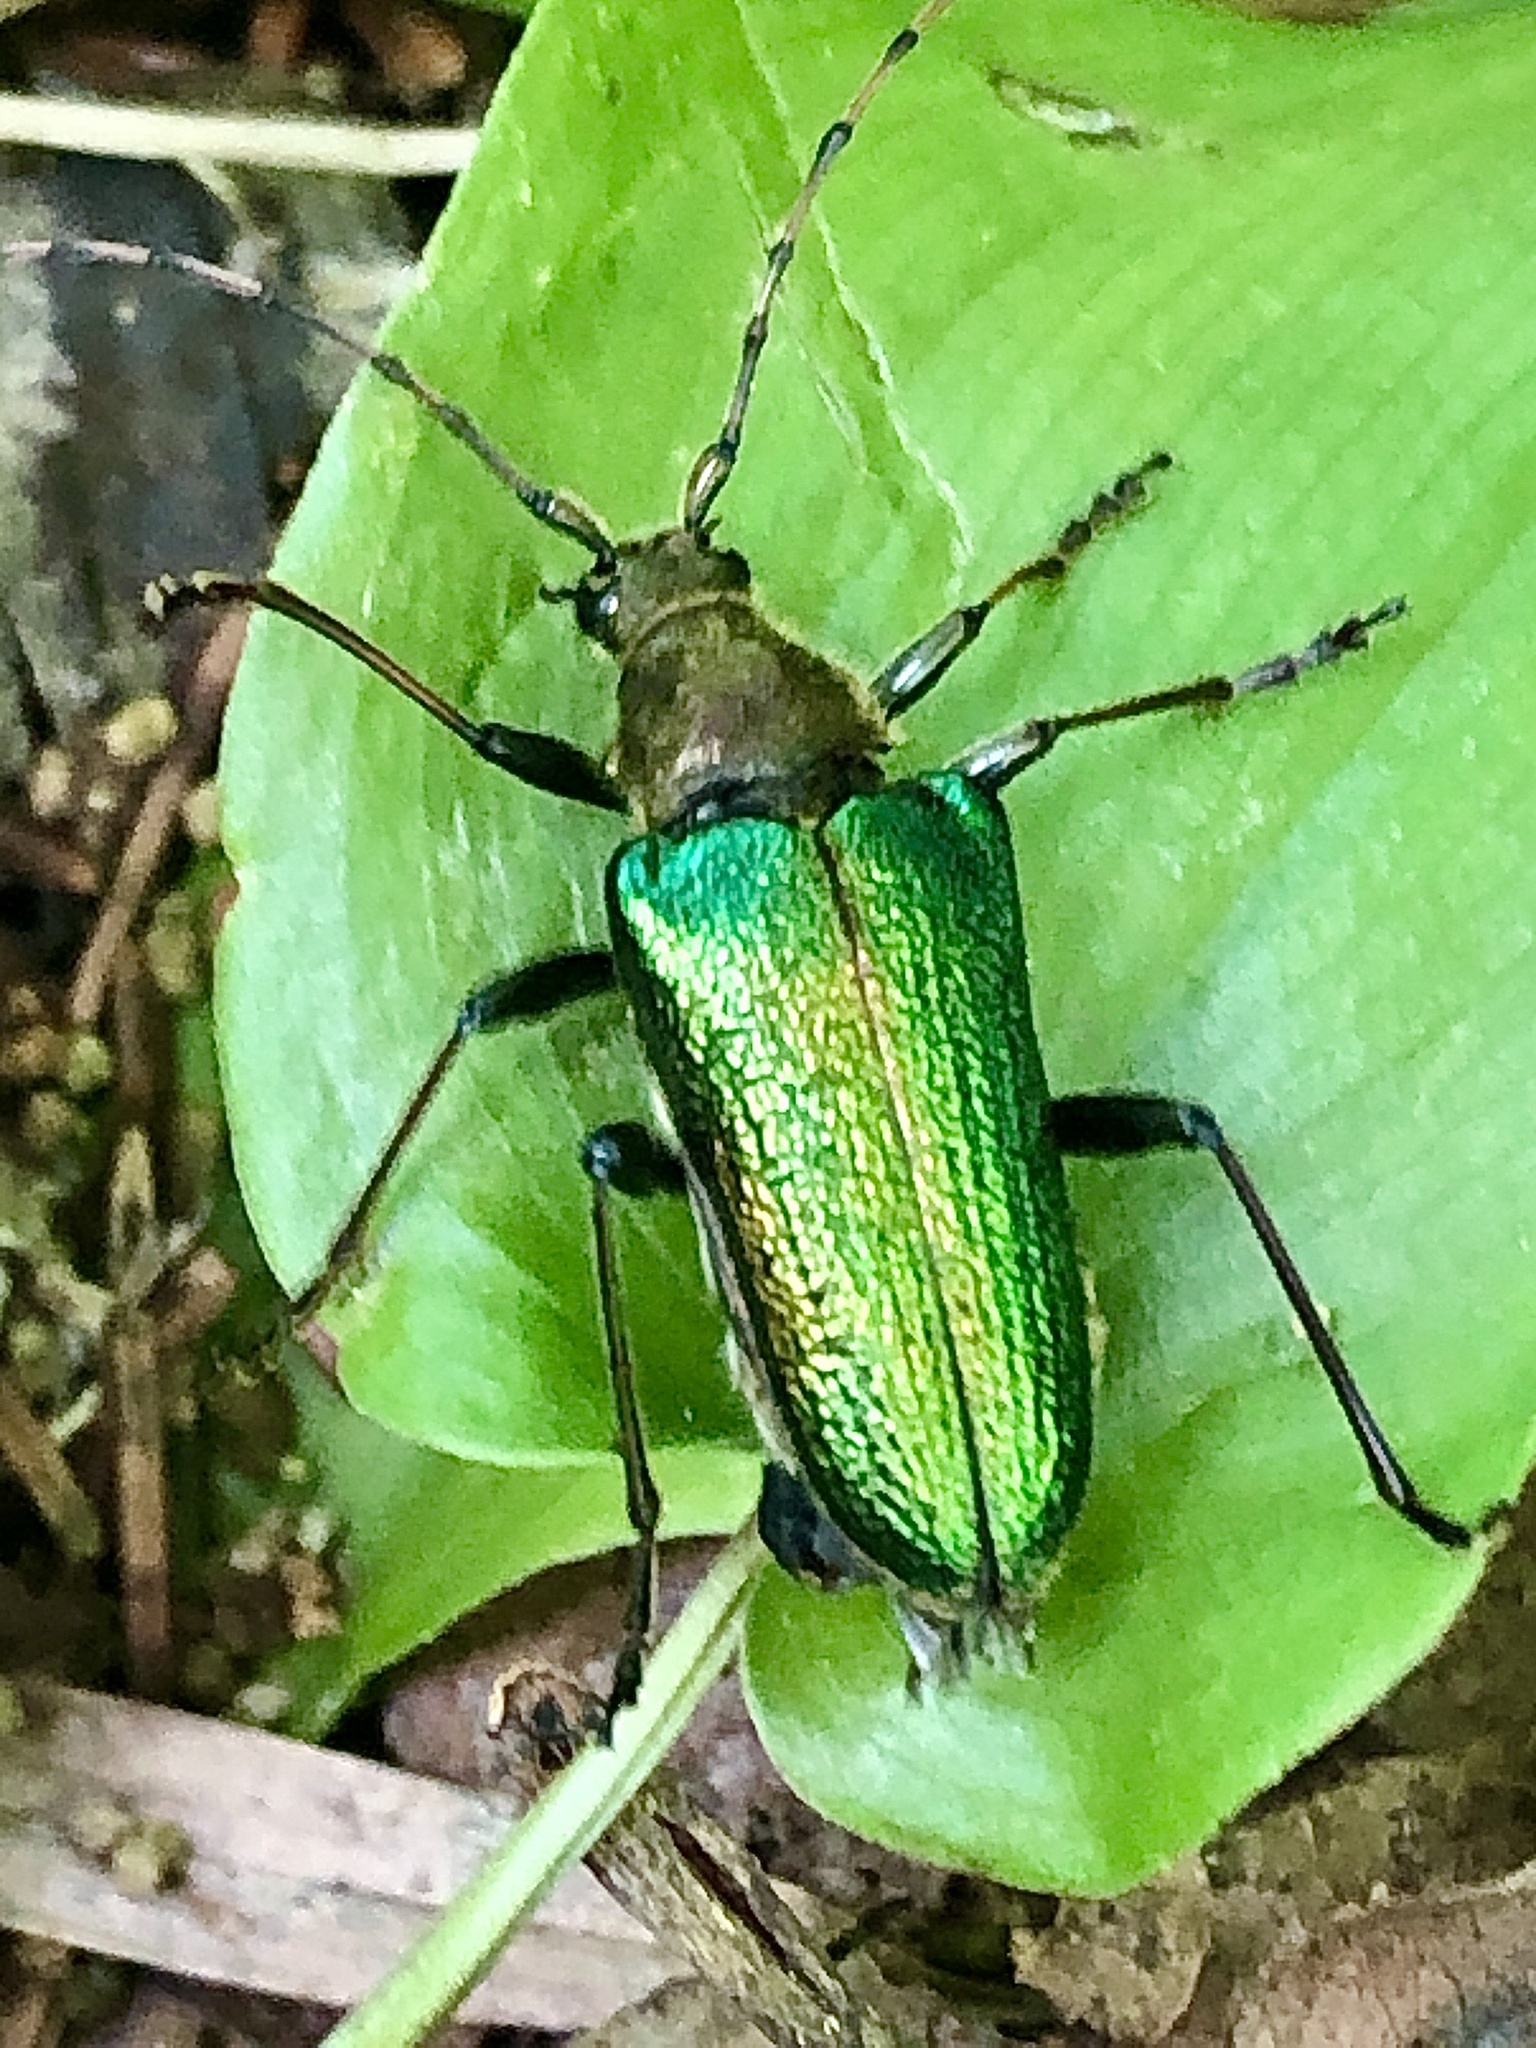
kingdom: Animalia
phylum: Arthropoda
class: Insecta
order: Coleoptera
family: Cerambycidae
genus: Anthophylax
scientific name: Anthophylax viridis
